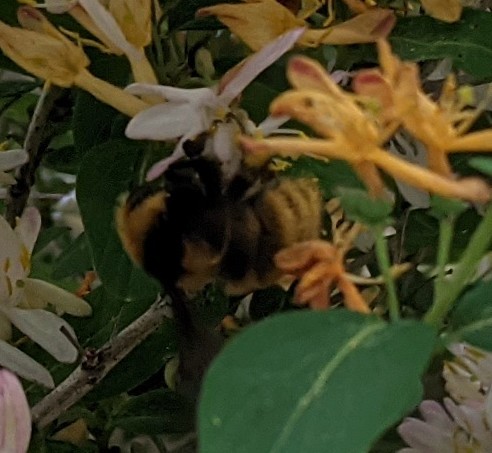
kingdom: Animalia
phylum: Arthropoda
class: Insecta
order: Hymenoptera
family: Apidae
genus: Bombus
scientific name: Bombus borealis
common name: Northern amber bumble bee
